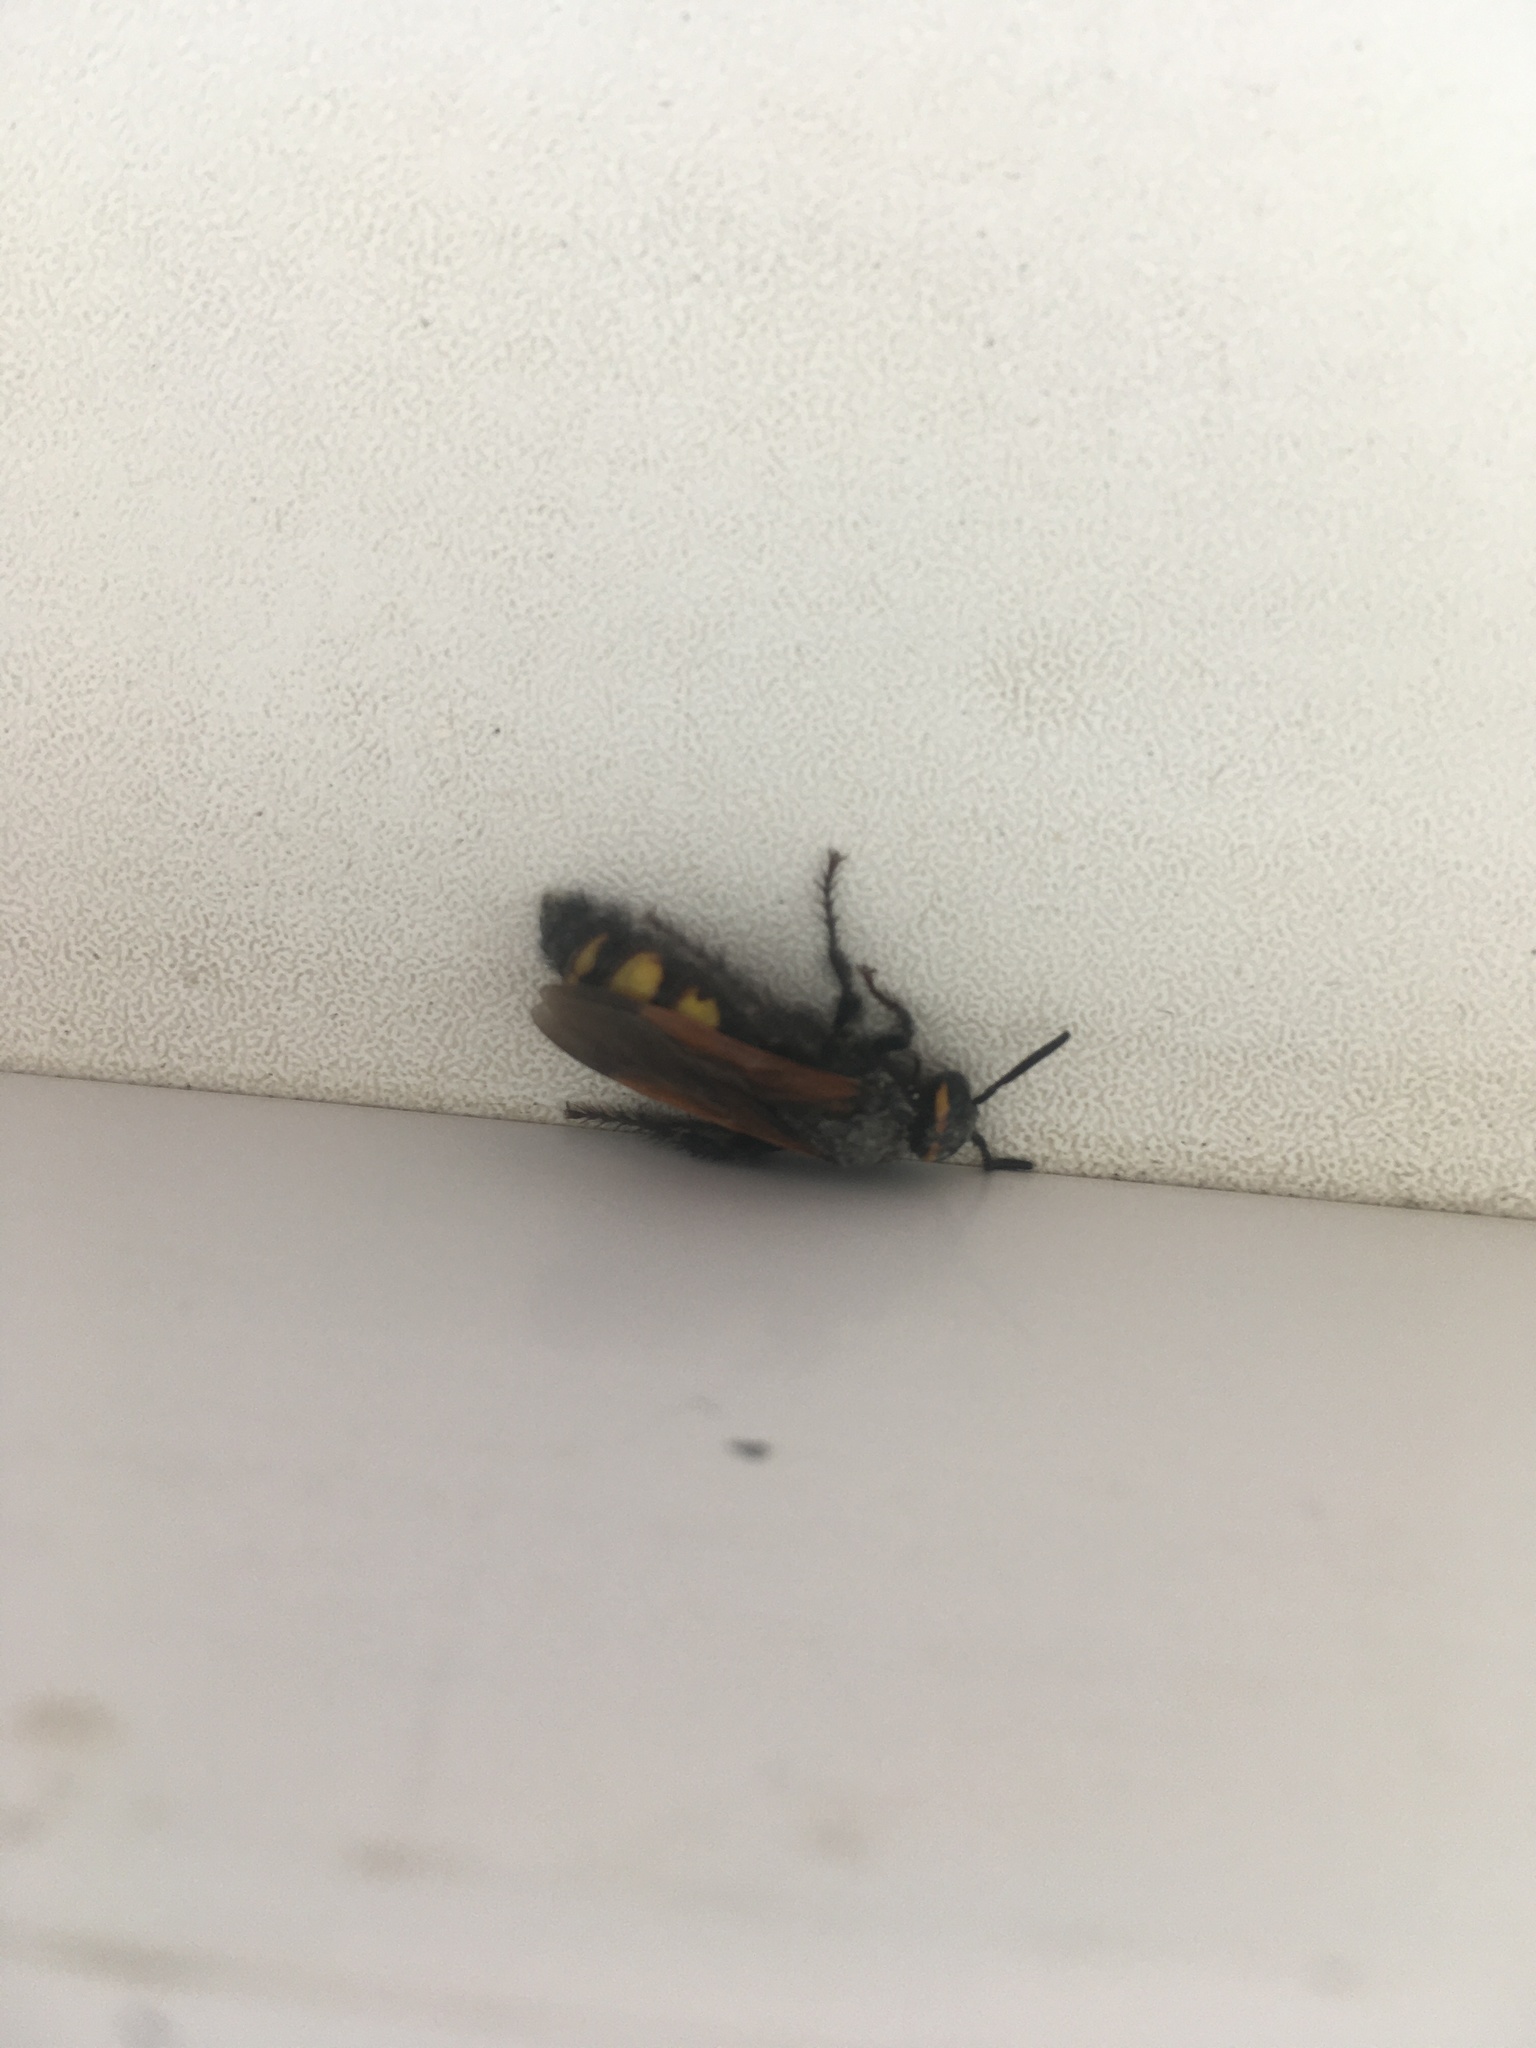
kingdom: Animalia
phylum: Arthropoda
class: Insecta
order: Hymenoptera
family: Scoliidae
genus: Scolia
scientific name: Scolia fuciformis
